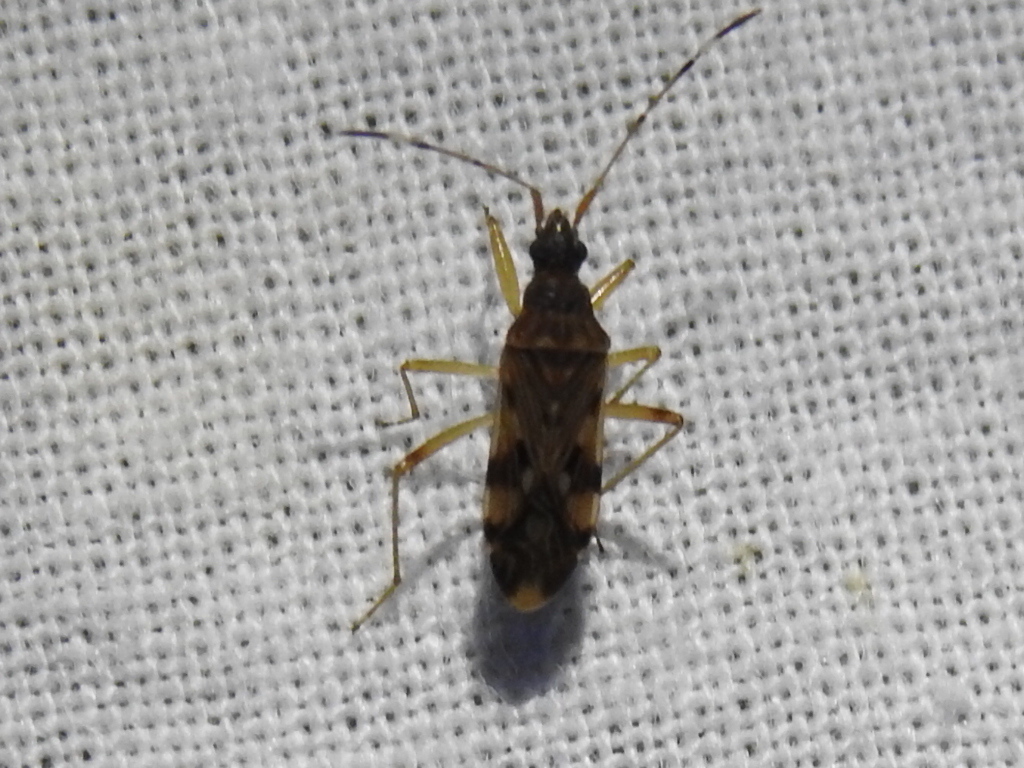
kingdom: Animalia
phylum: Arthropoda
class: Insecta
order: Hemiptera
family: Rhyparochromidae
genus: Ozophora
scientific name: Ozophora picturata
